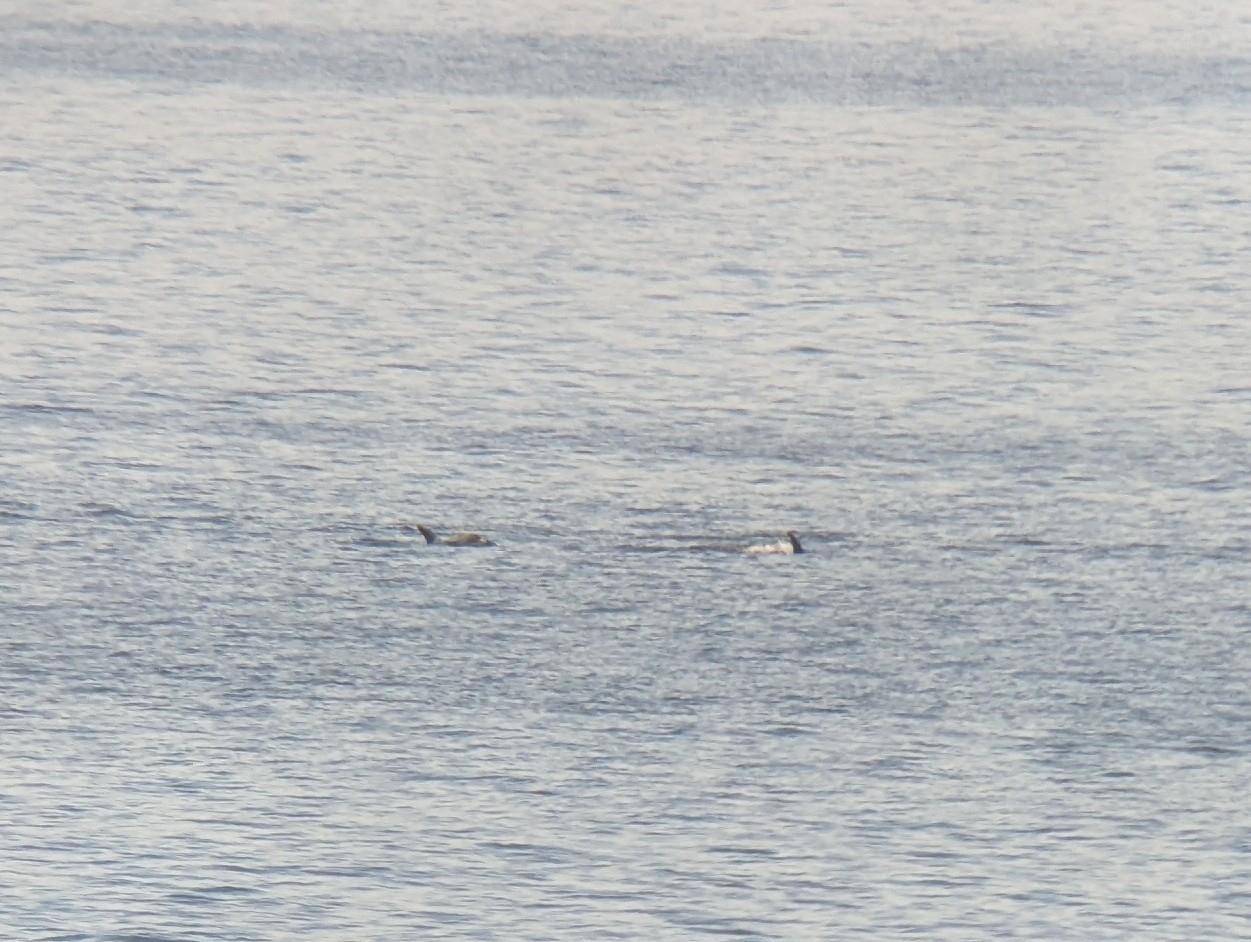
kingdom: Animalia
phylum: Chordata
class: Mammalia
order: Cetacea
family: Delphinidae
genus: Lagenorhynchus
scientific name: Lagenorhynchus albirostris
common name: White-beaked dolphin
